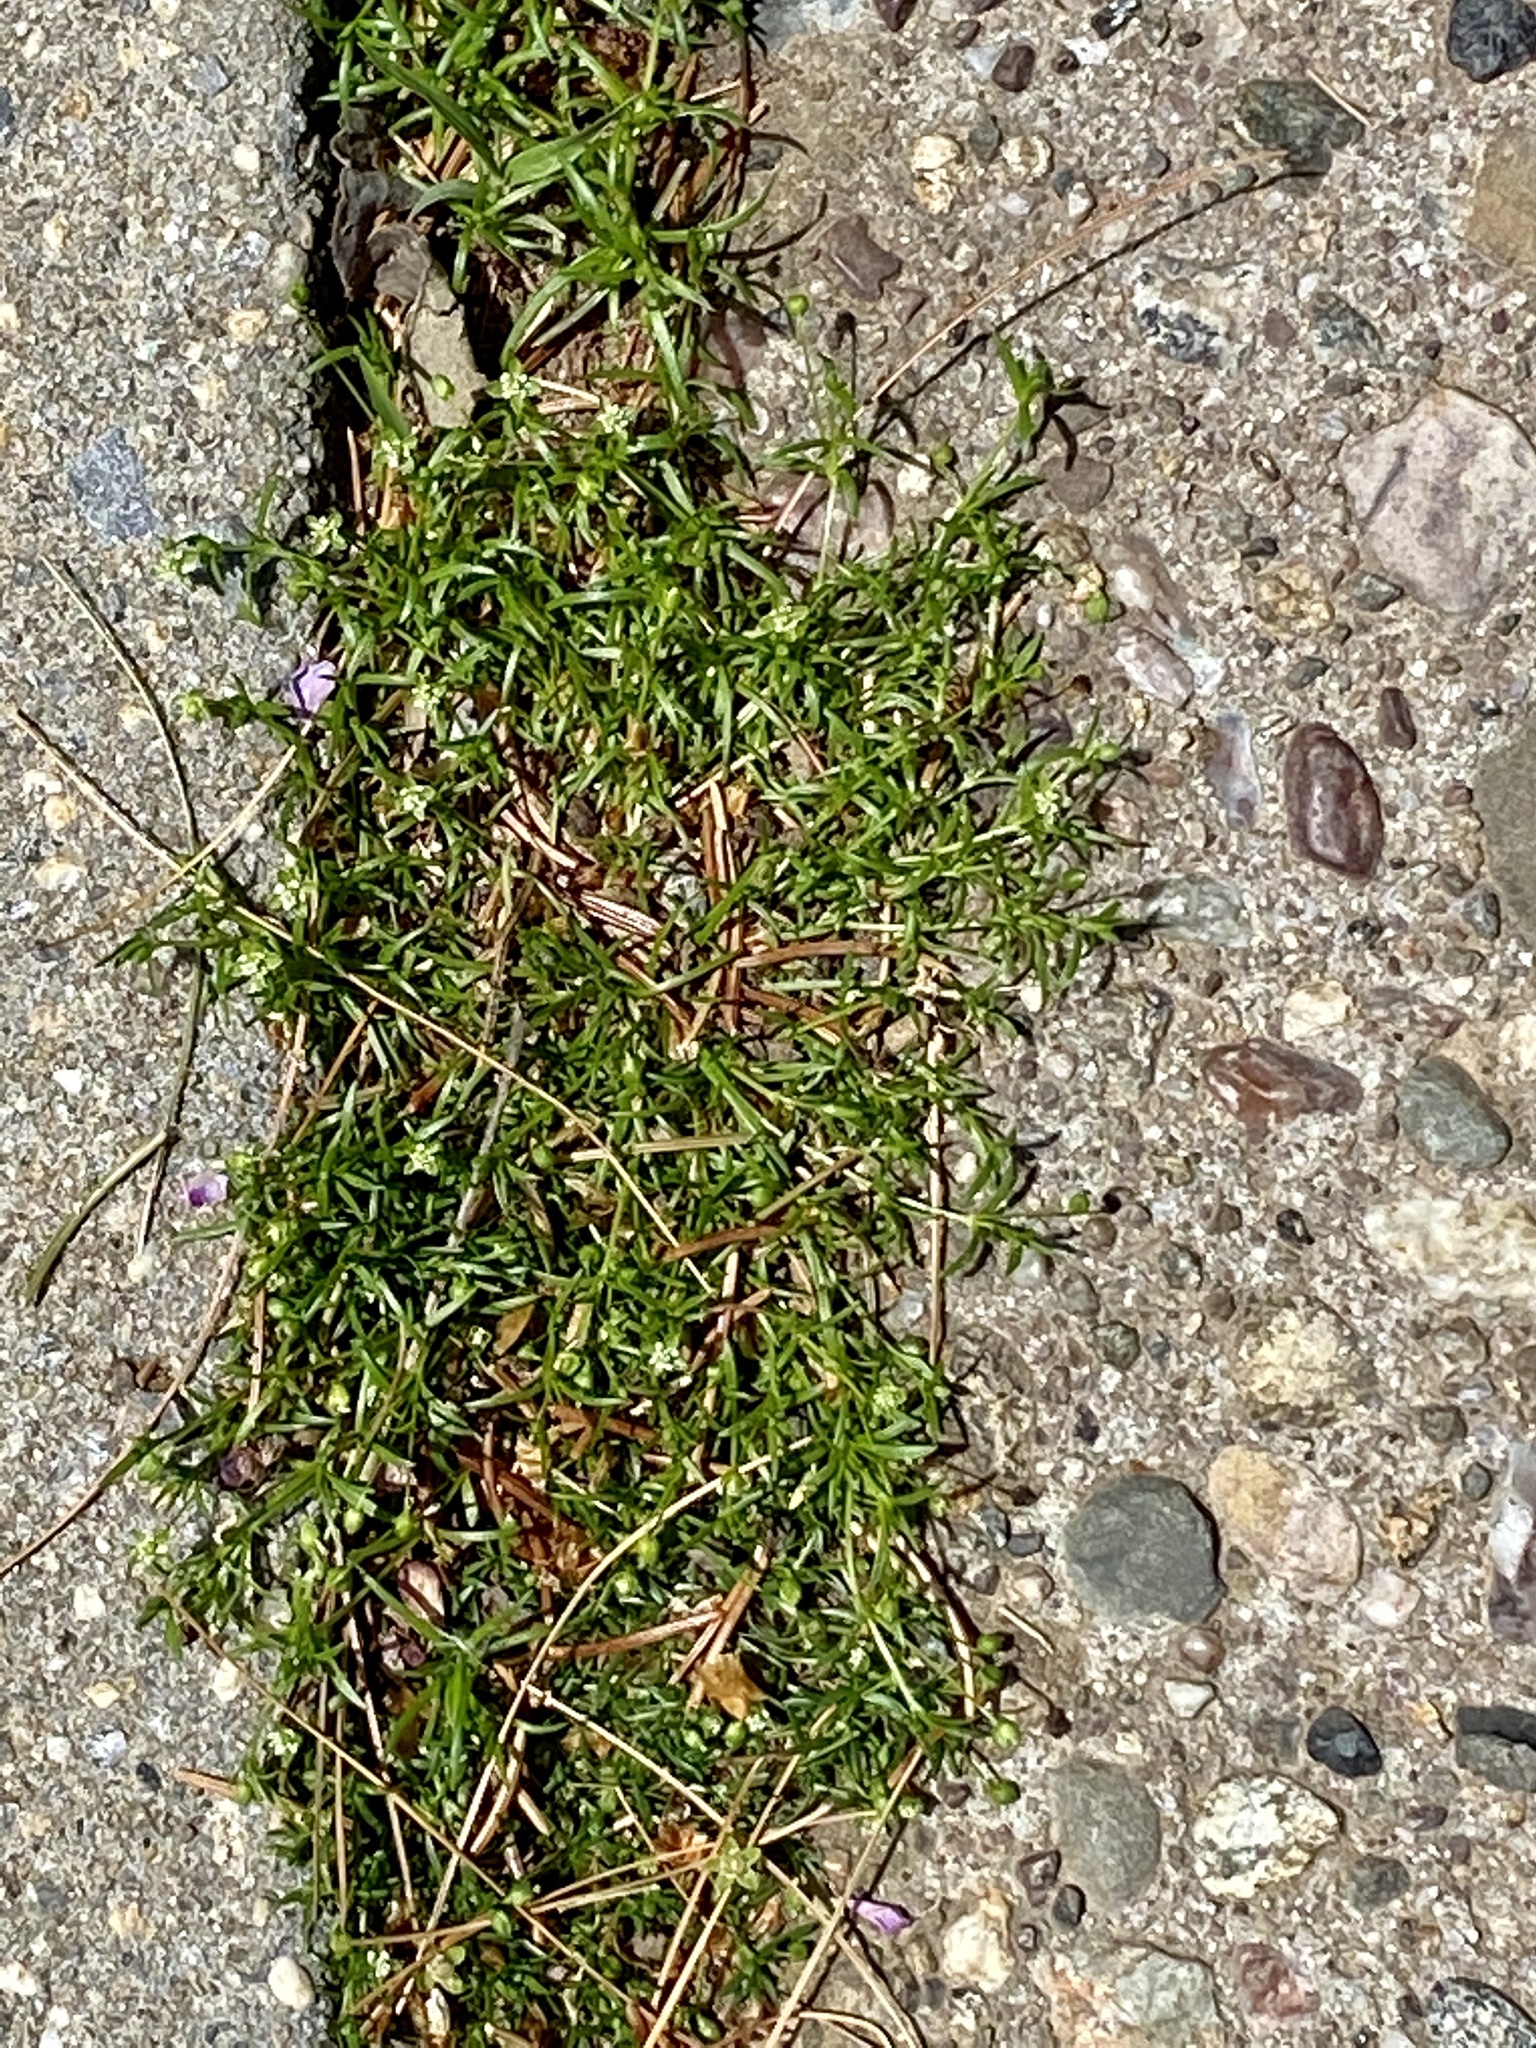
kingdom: Plantae
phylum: Tracheophyta
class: Magnoliopsida
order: Caryophyllales
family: Caryophyllaceae
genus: Sagina
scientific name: Sagina procumbens
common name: Procumbent pearlwort
